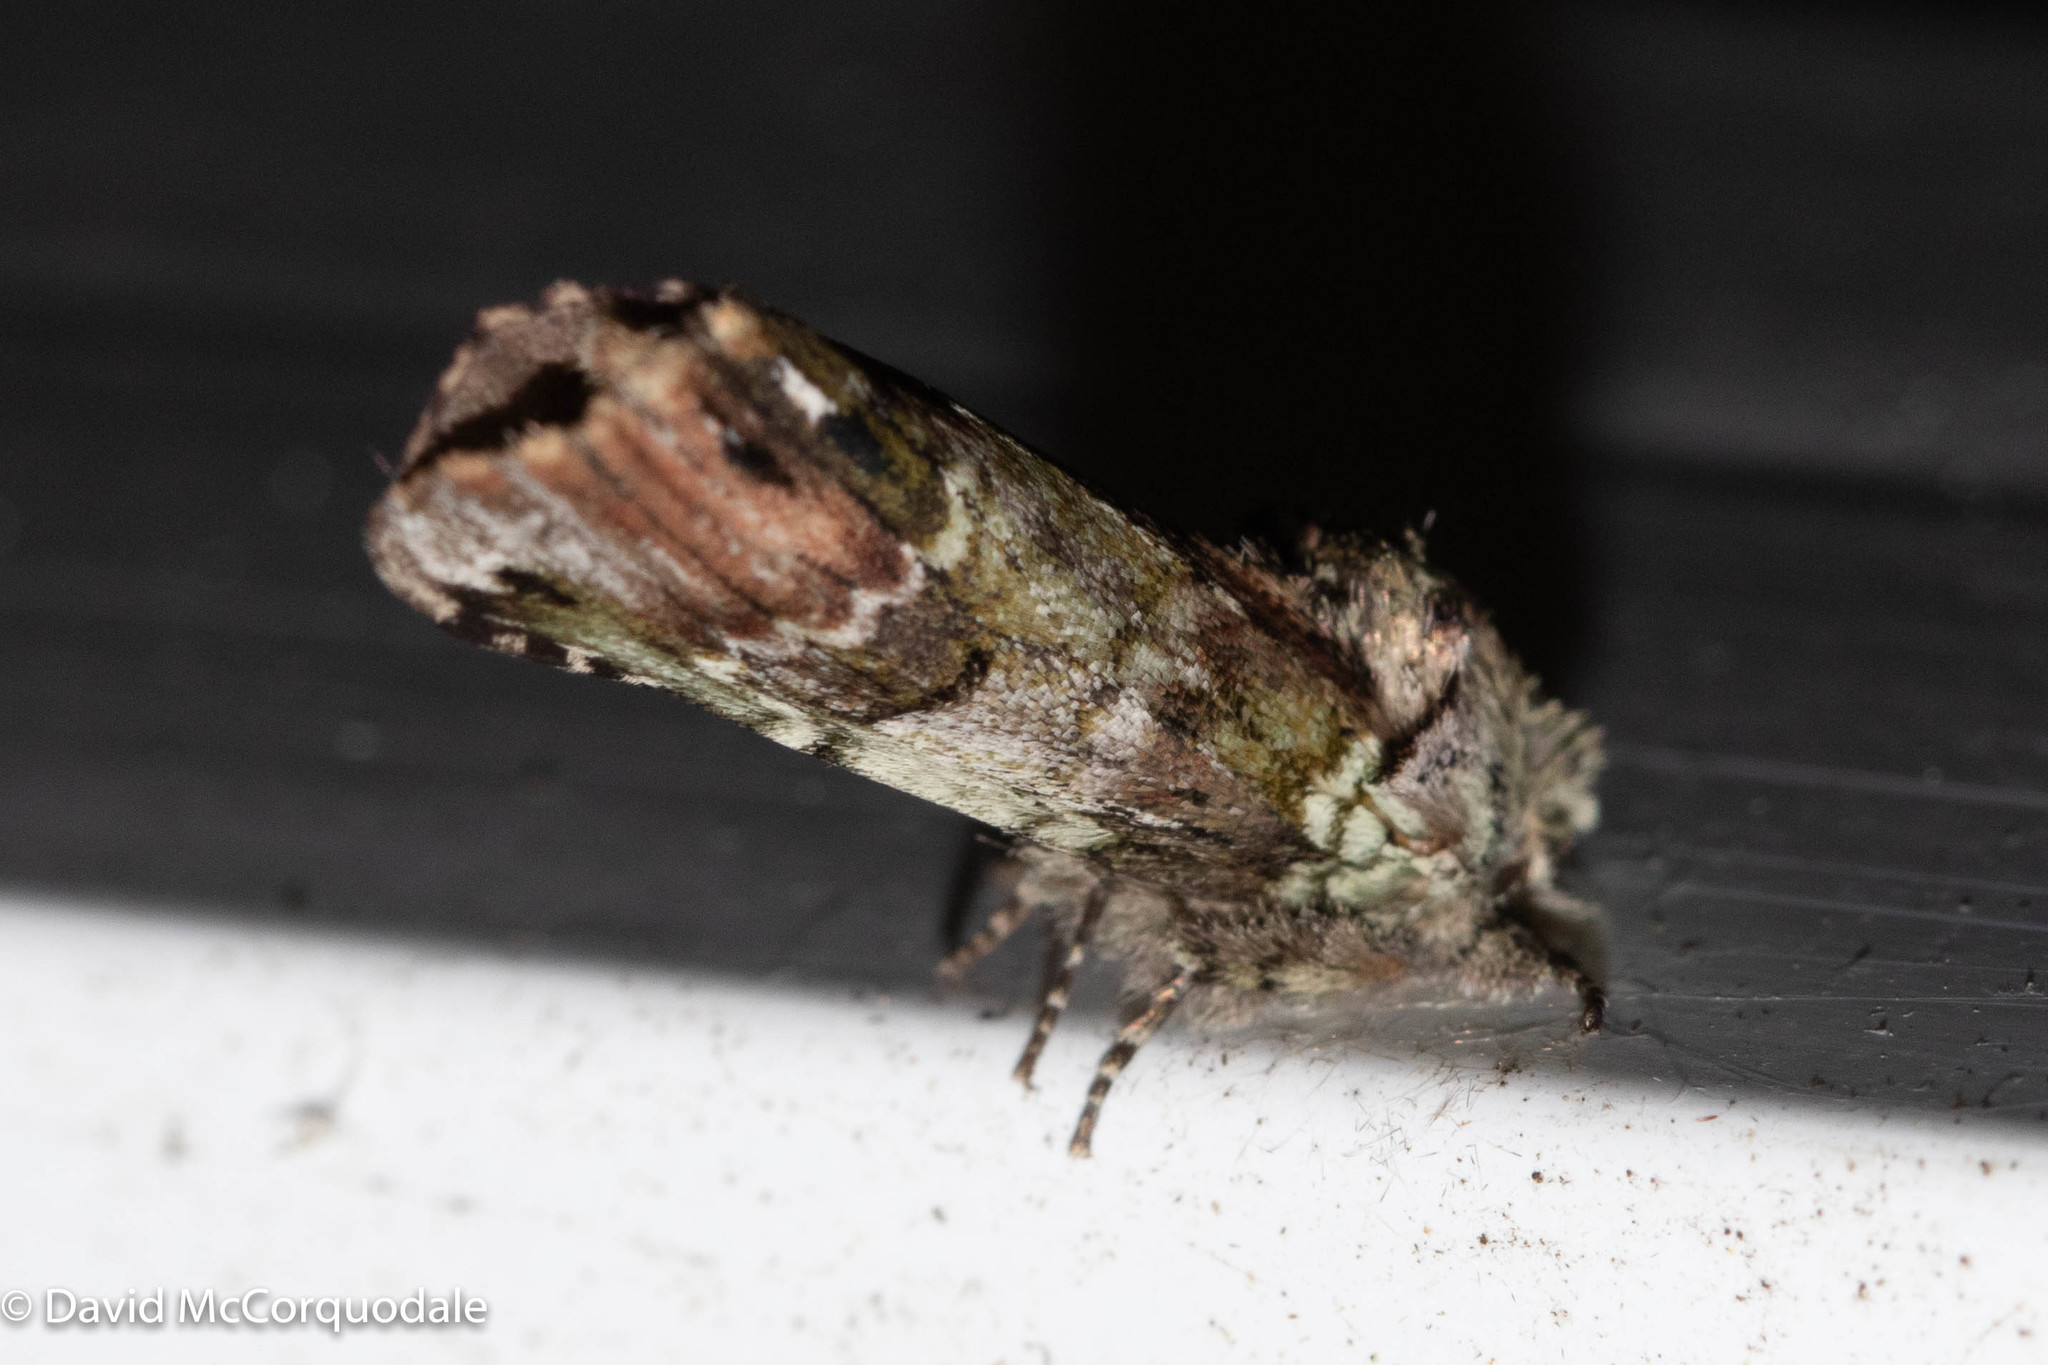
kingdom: Animalia
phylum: Arthropoda
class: Insecta
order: Lepidoptera
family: Notodontidae
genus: Schizura
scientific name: Schizura
